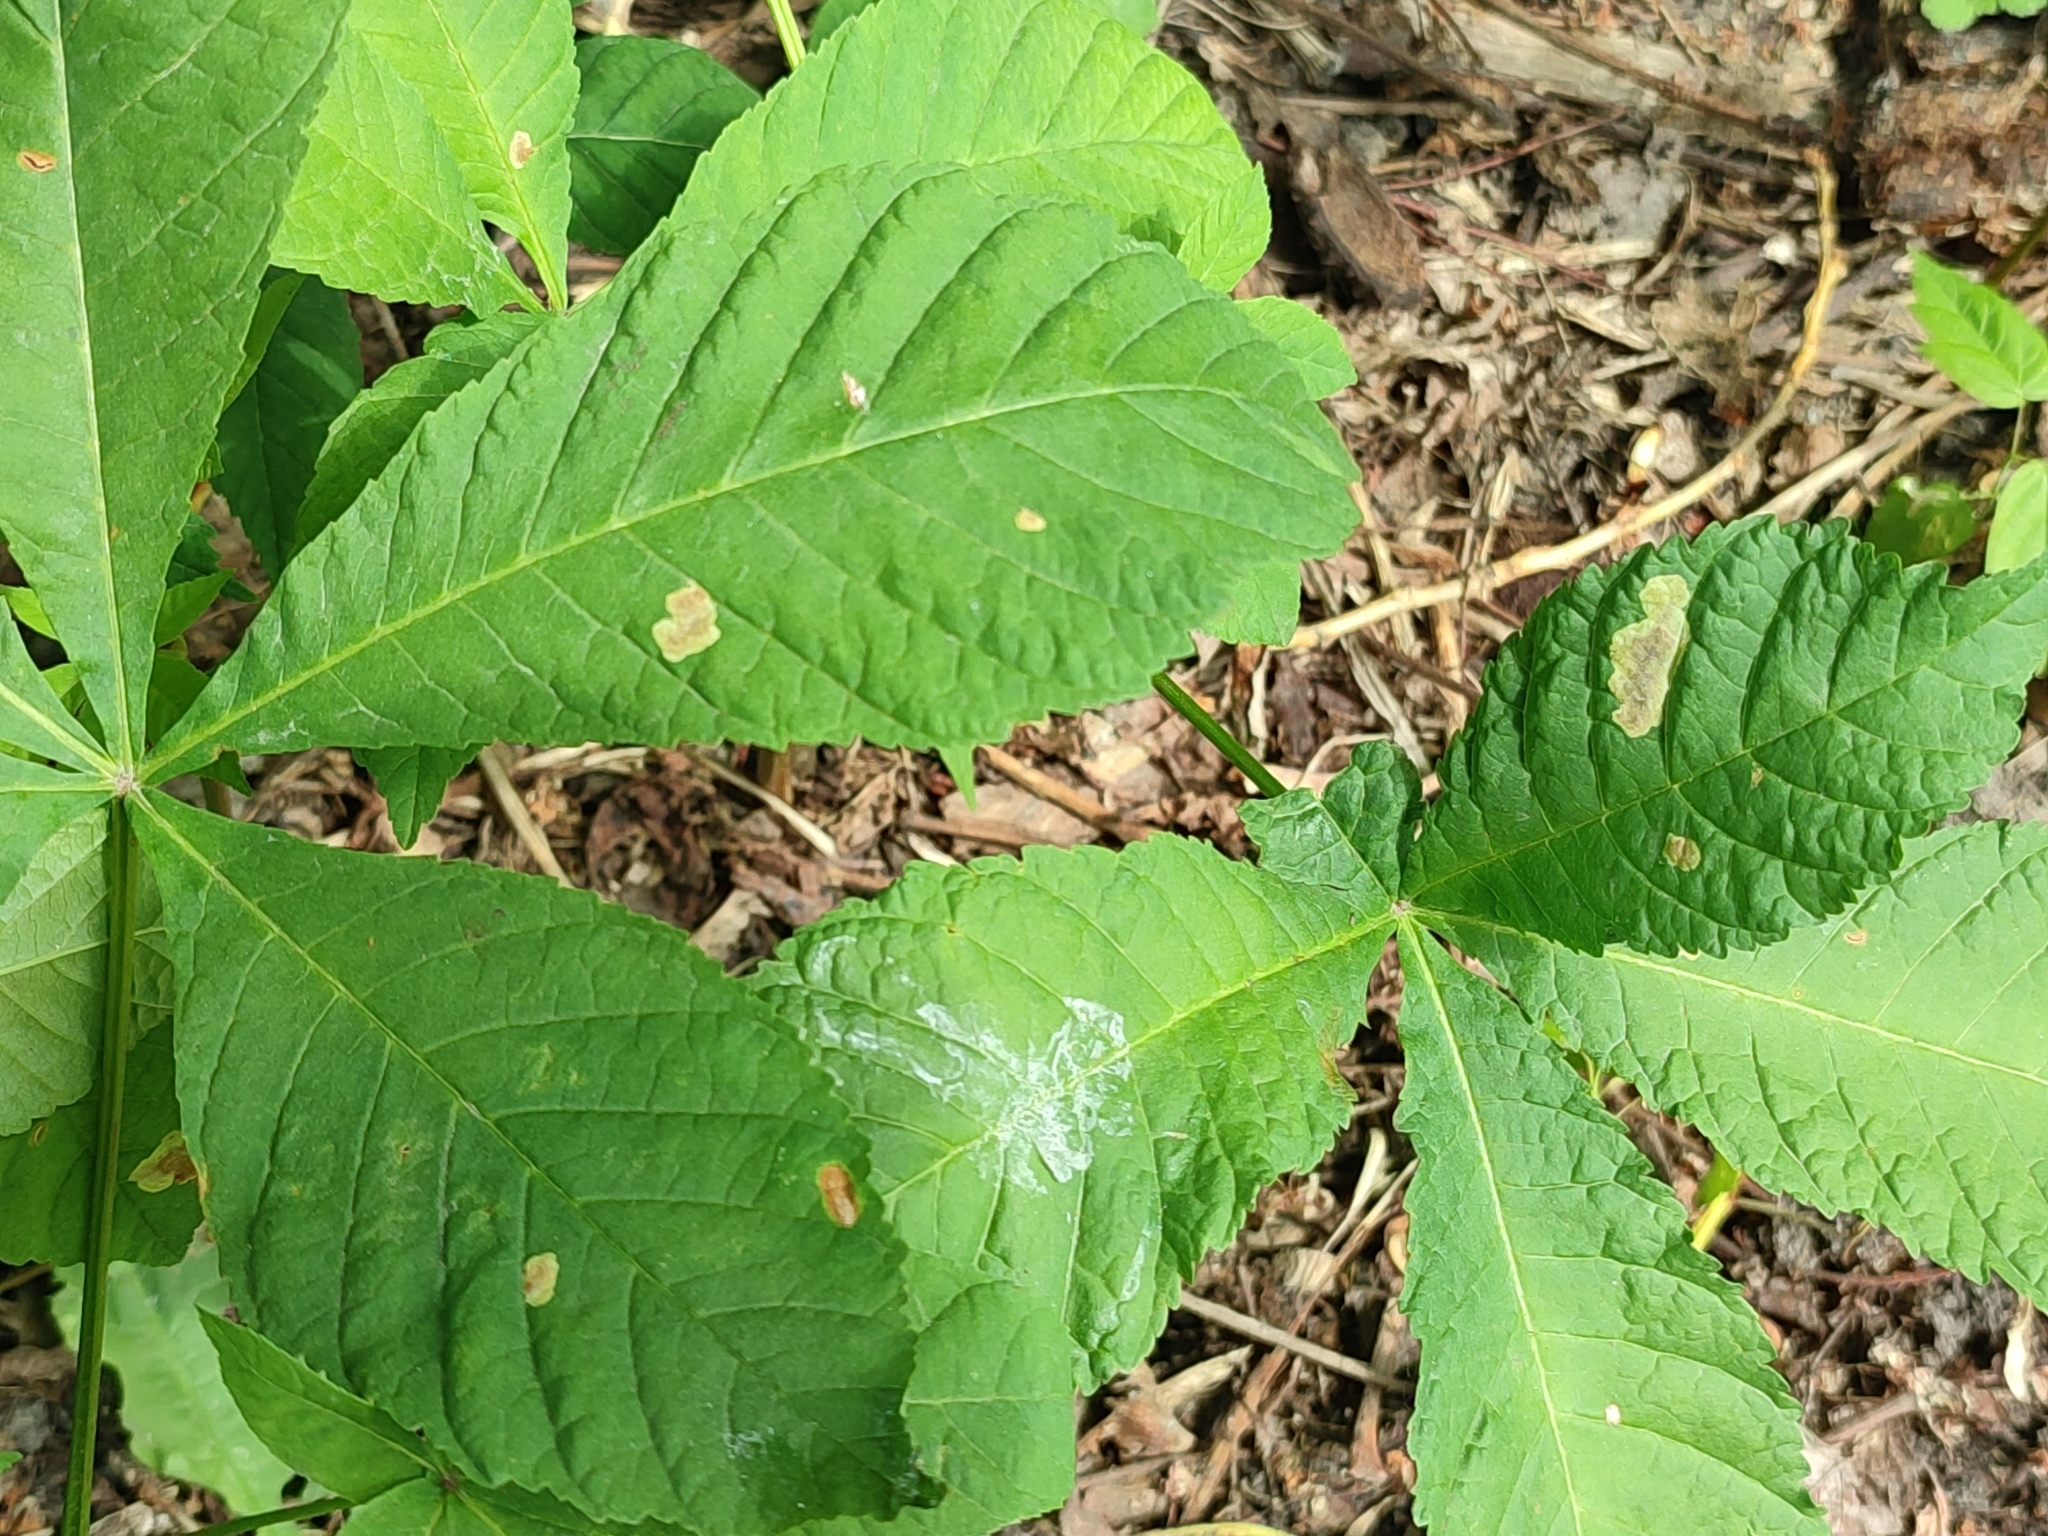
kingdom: Animalia
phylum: Arthropoda
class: Insecta
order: Lepidoptera
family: Gracillariidae
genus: Cameraria
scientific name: Cameraria ohridella
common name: Horse-chestnut leaf-miner
